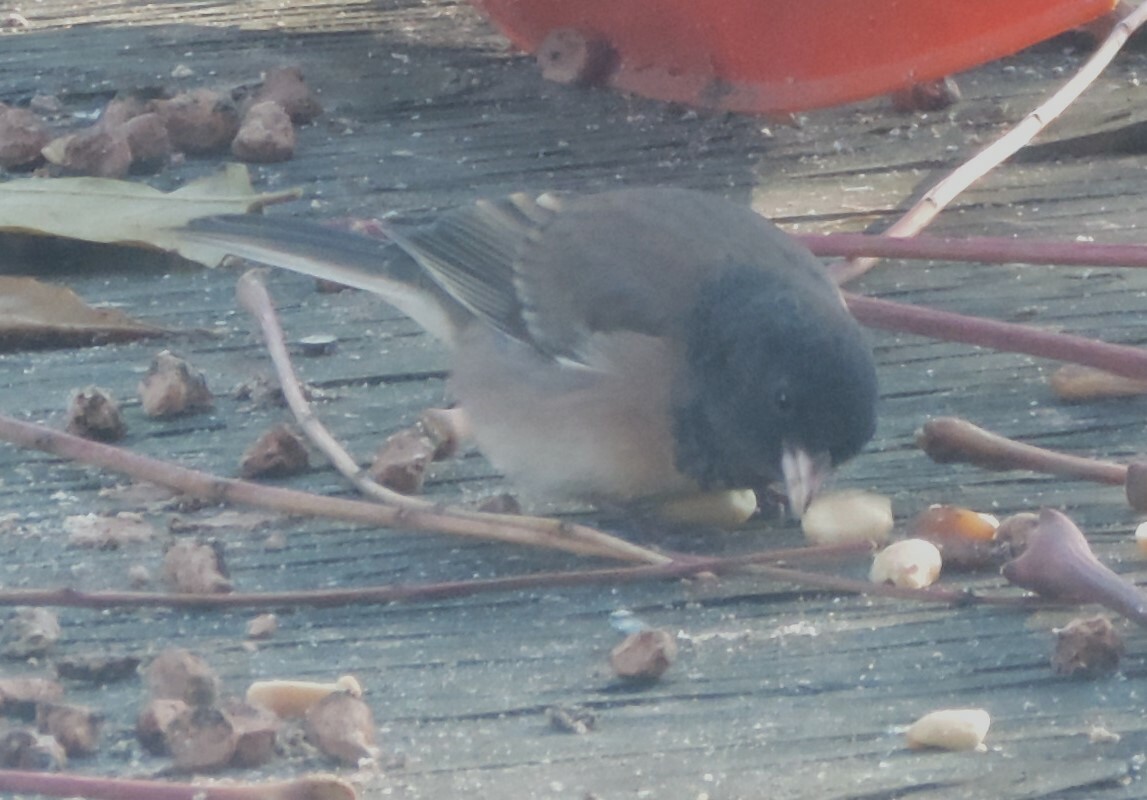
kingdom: Animalia
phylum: Chordata
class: Aves
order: Passeriformes
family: Passerellidae
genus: Junco
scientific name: Junco hyemalis
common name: Dark-eyed junco
